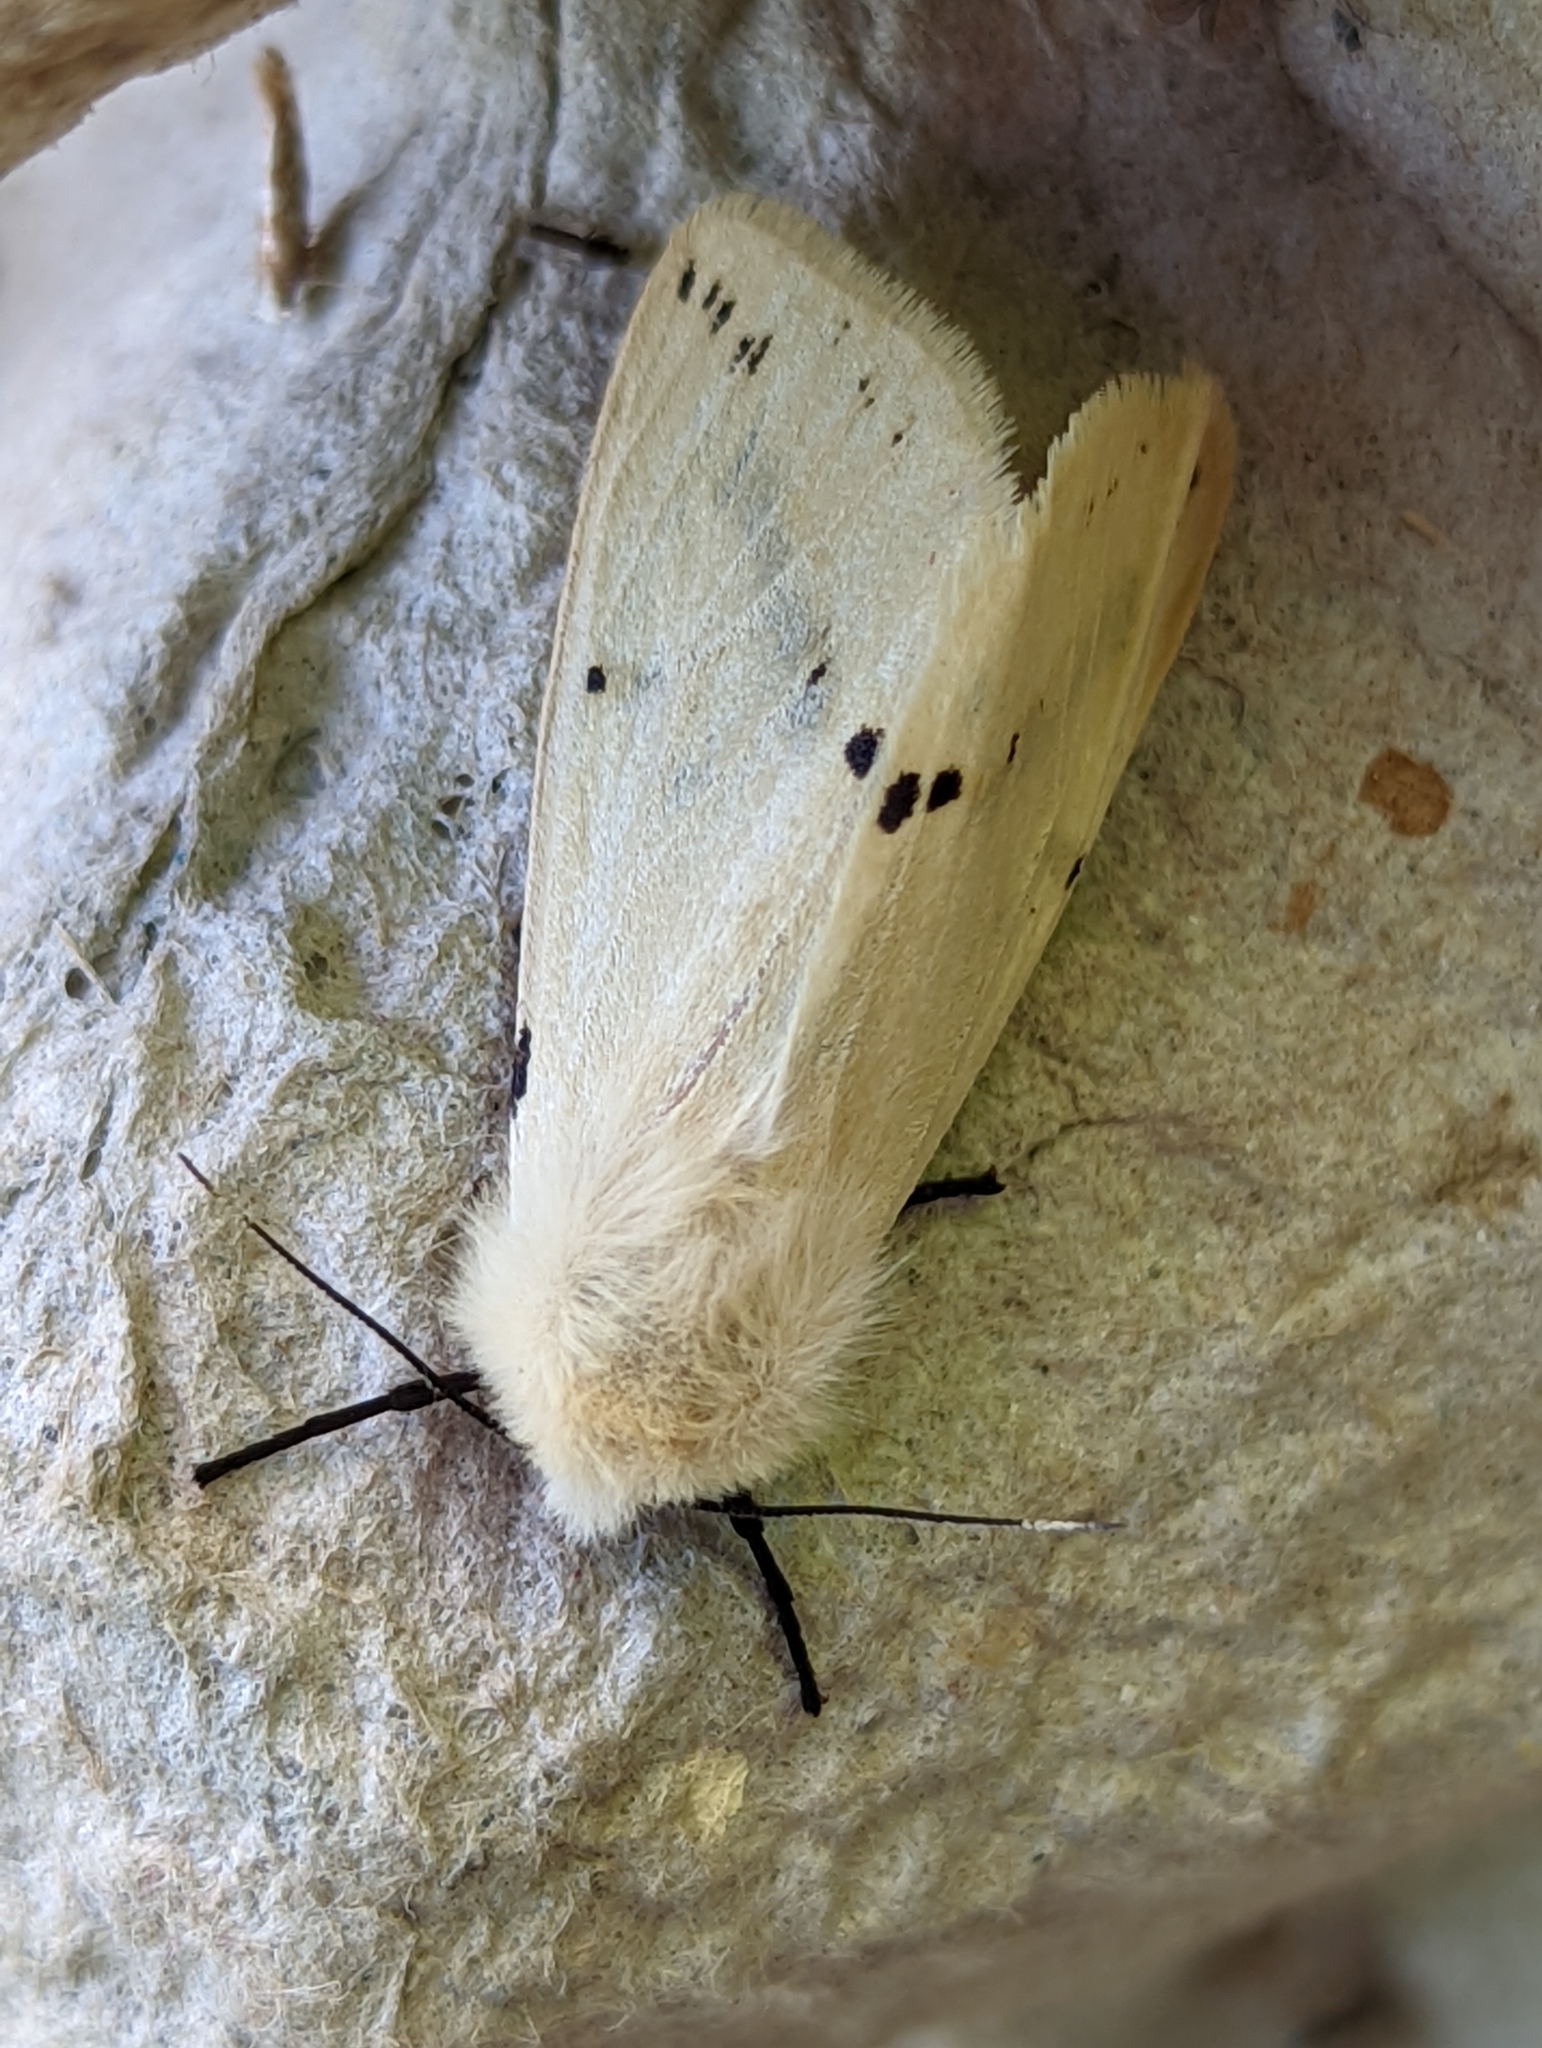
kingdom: Animalia
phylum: Arthropoda
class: Insecta
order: Lepidoptera
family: Erebidae
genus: Spilarctia
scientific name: Spilarctia lutea
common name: Buff ermine
